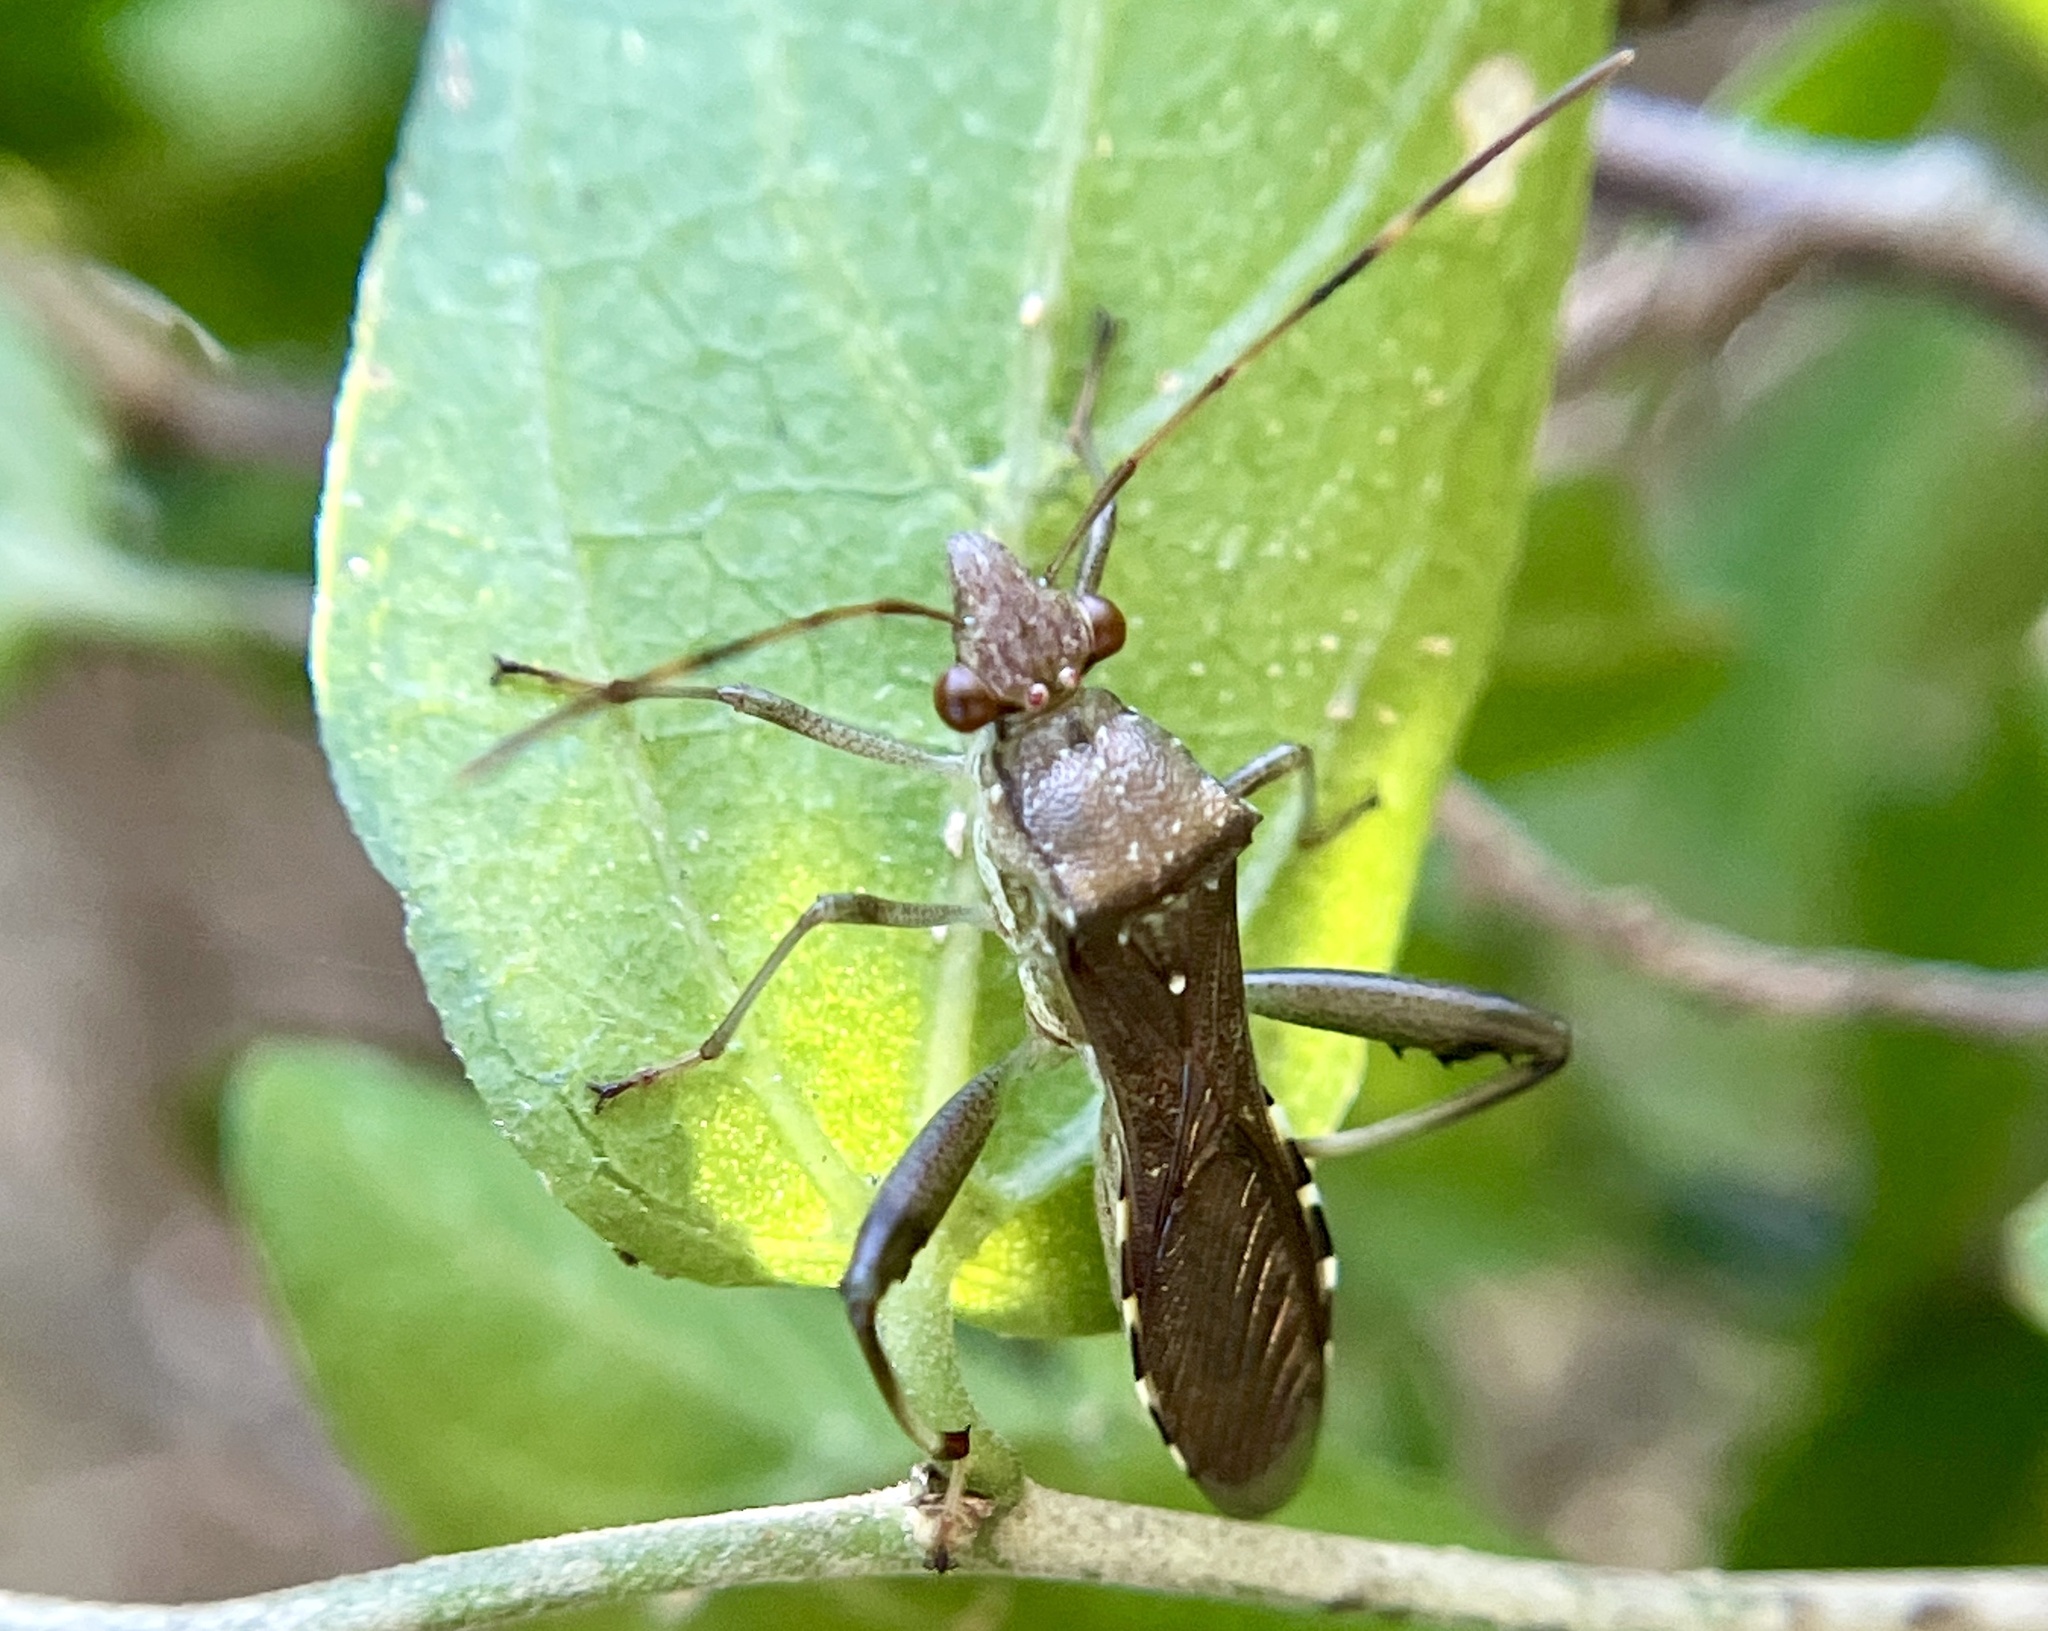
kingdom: Animalia
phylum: Arthropoda
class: Insecta
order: Hemiptera
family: Alydidae
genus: Hyalymenus
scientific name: Hyalymenus tarsatus
